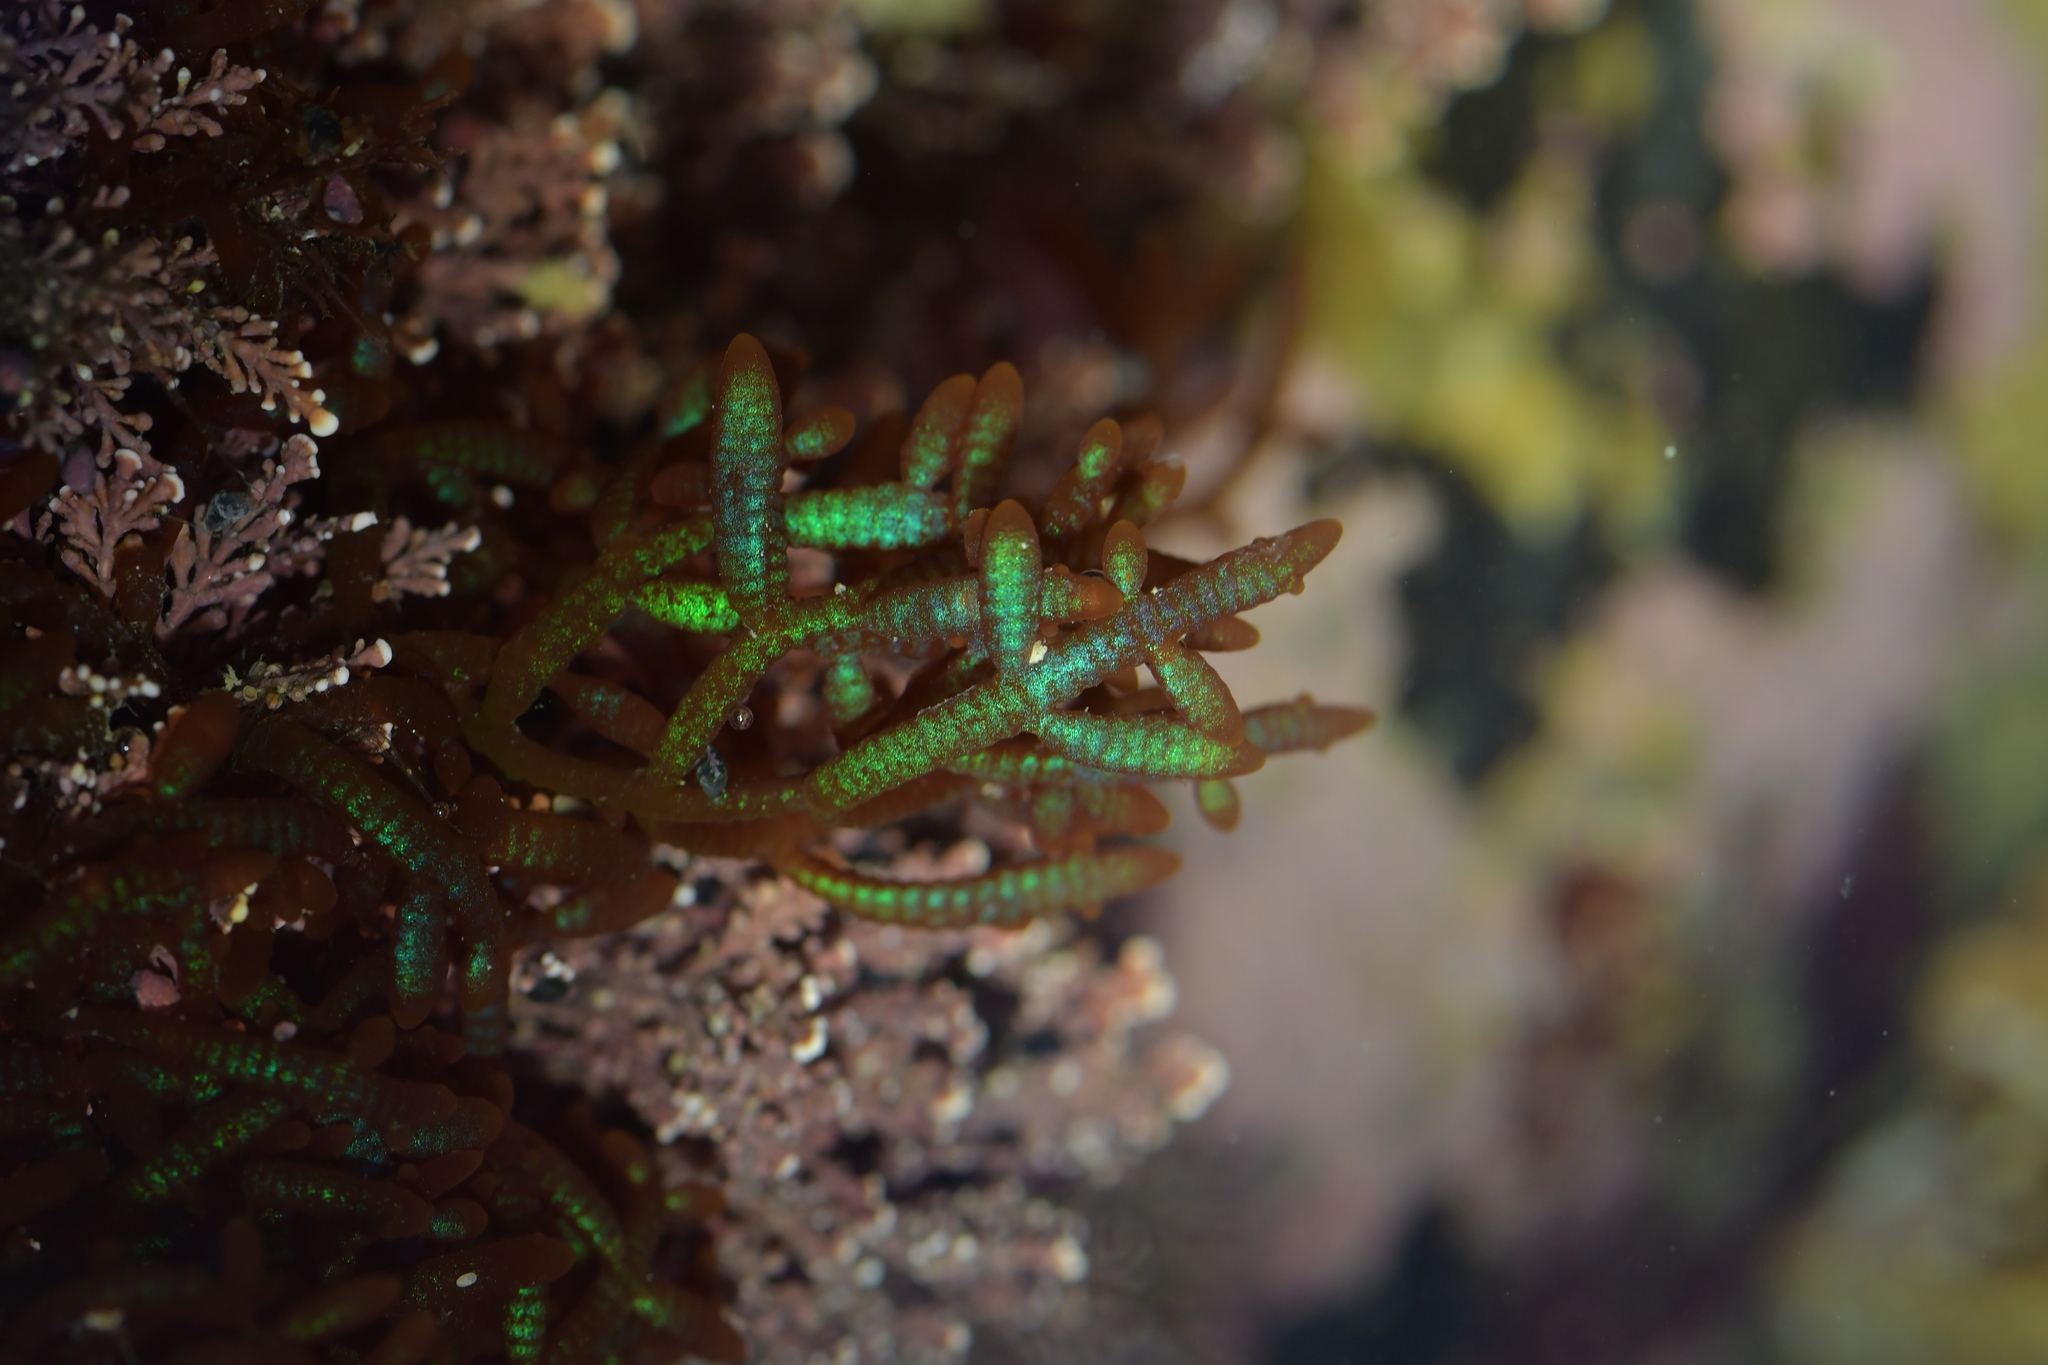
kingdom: Plantae
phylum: Rhodophyta
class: Florideophyceae
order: Rhodymeniales
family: Champiaceae
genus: Champia
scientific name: Champia laingii
